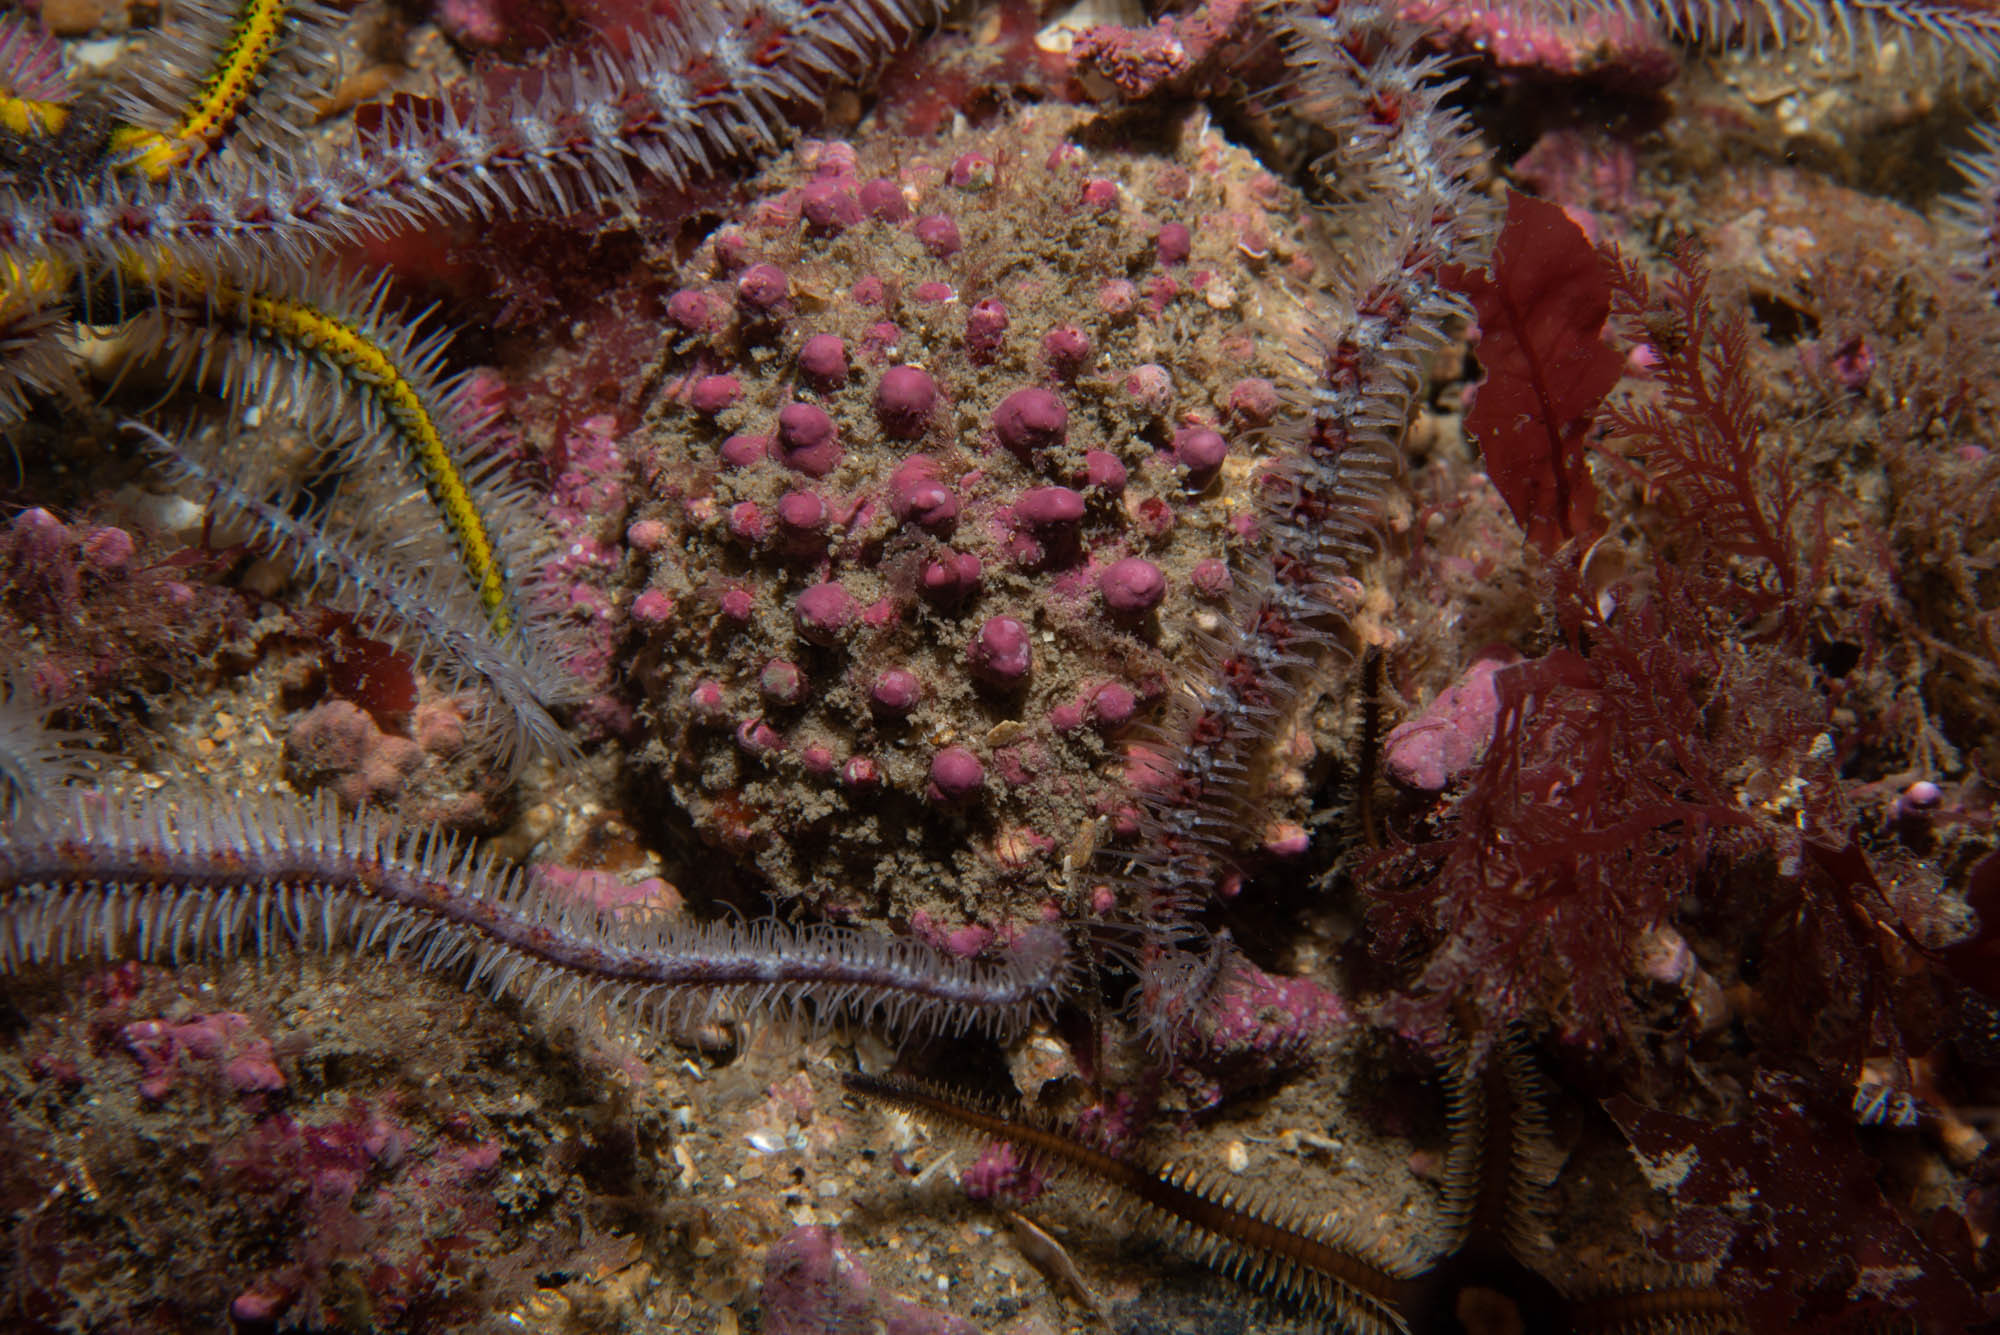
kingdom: Plantae
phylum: Rhodophyta
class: Florideophyceae
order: Corallinales
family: Hapalidiaceae
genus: Lithothamnion
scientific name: Lithothamnion glaciale
